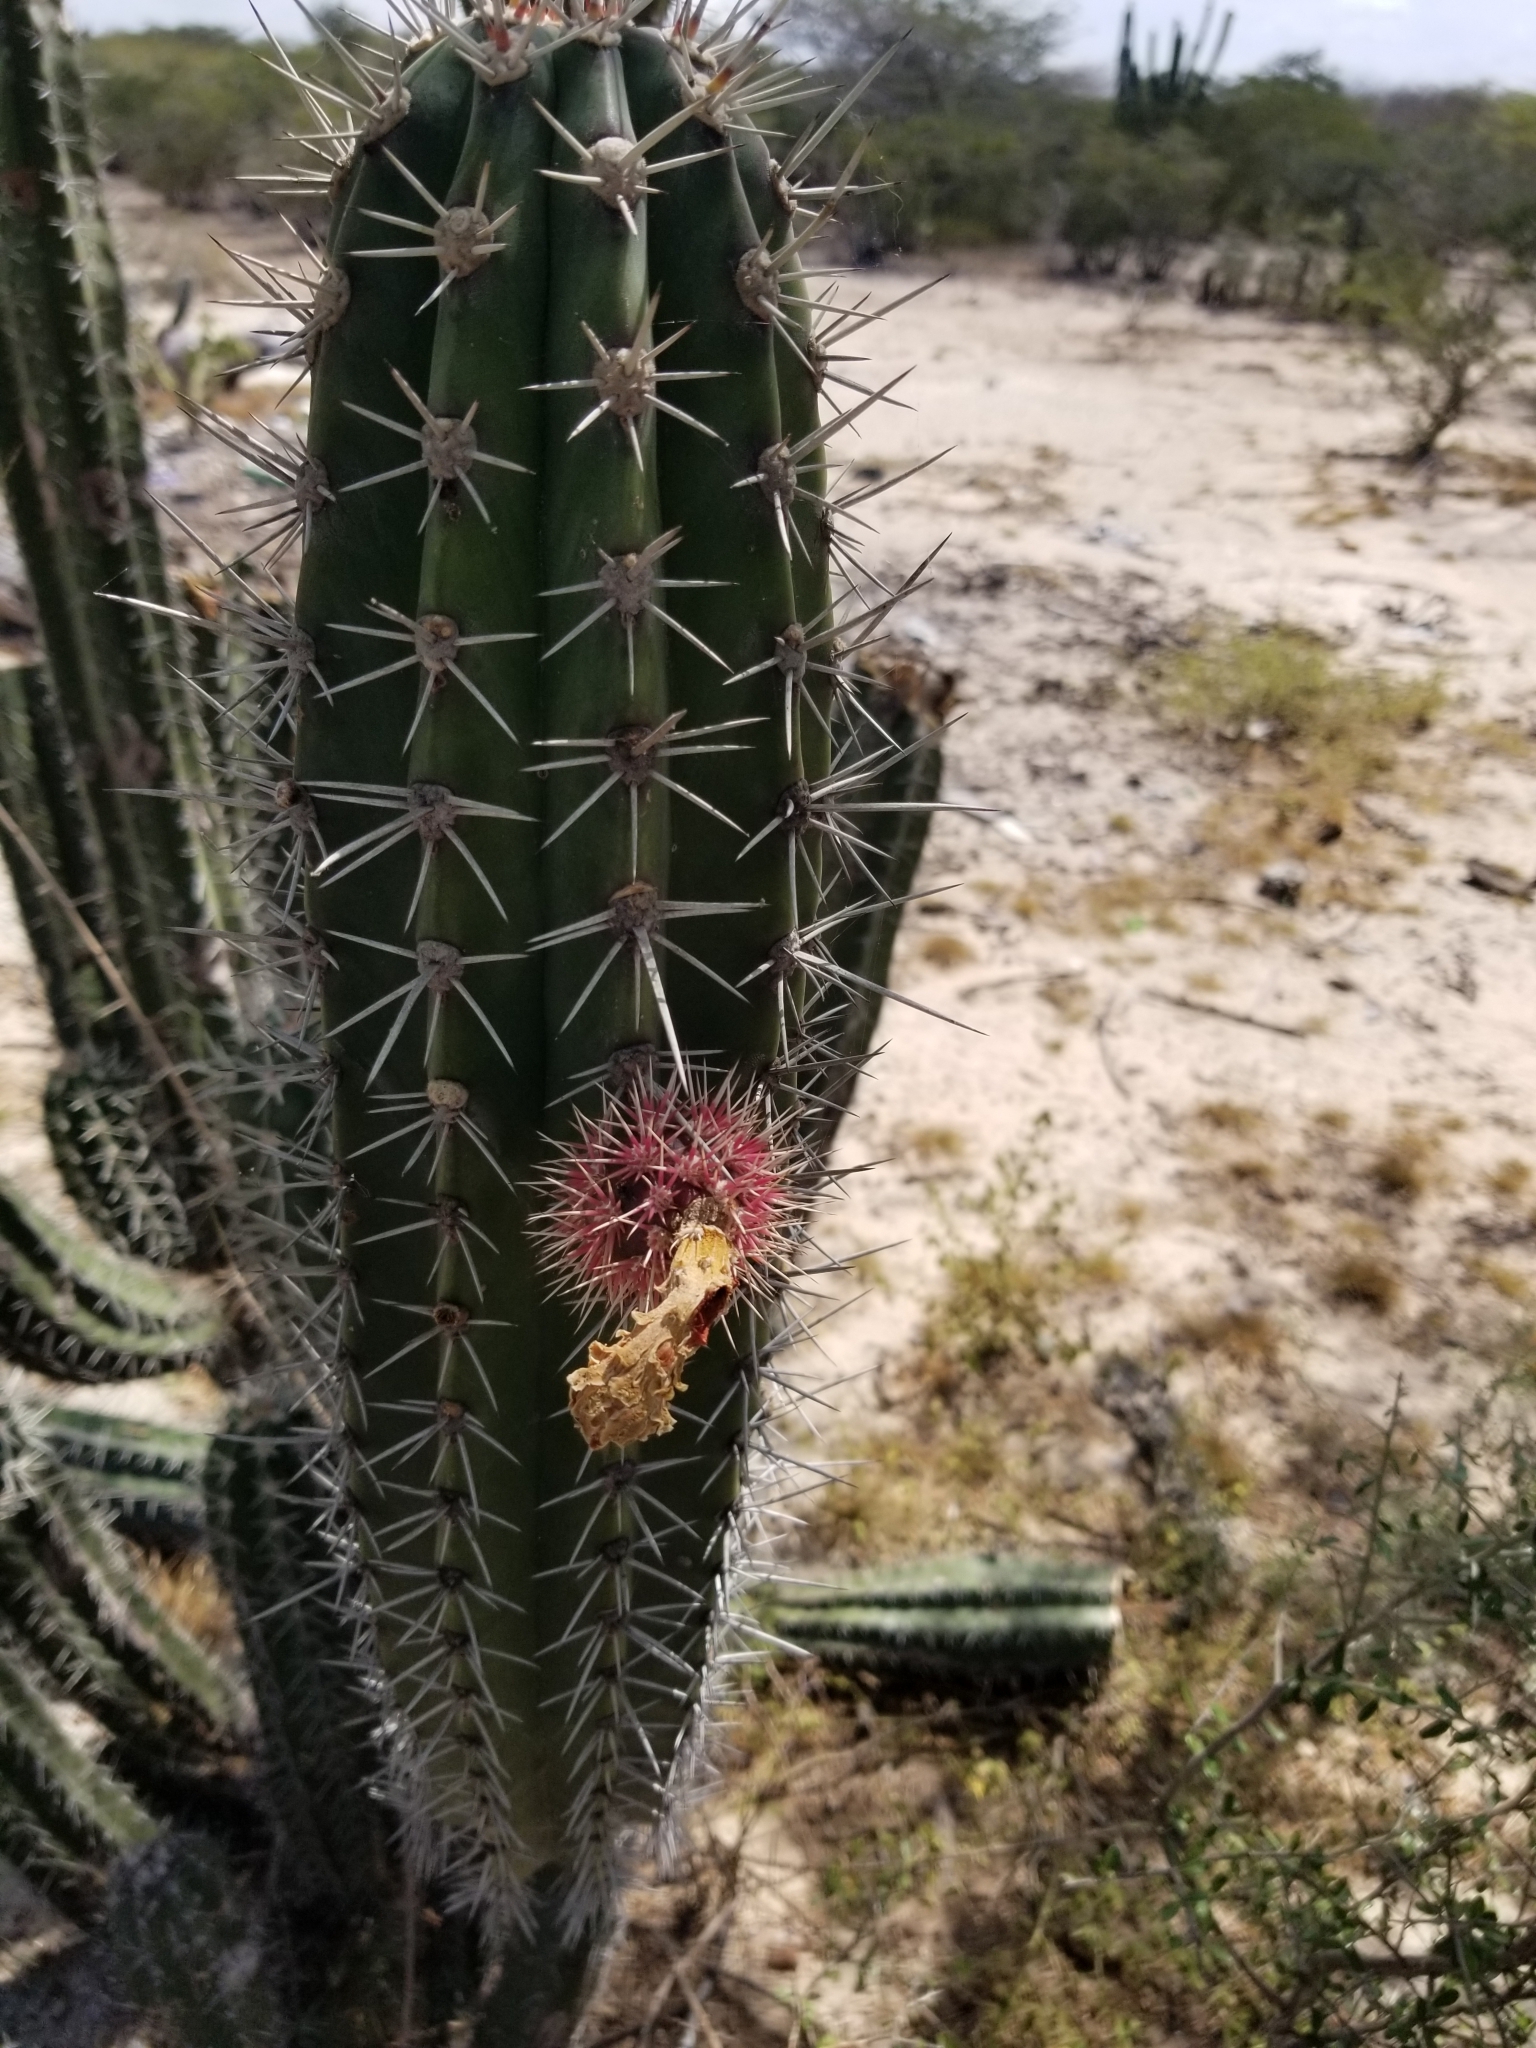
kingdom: Plantae
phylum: Tracheophyta
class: Magnoliopsida
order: Caryophyllales
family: Cactaceae
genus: Stenocereus
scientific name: Stenocereus griseus
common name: Tall candelabra cactus
